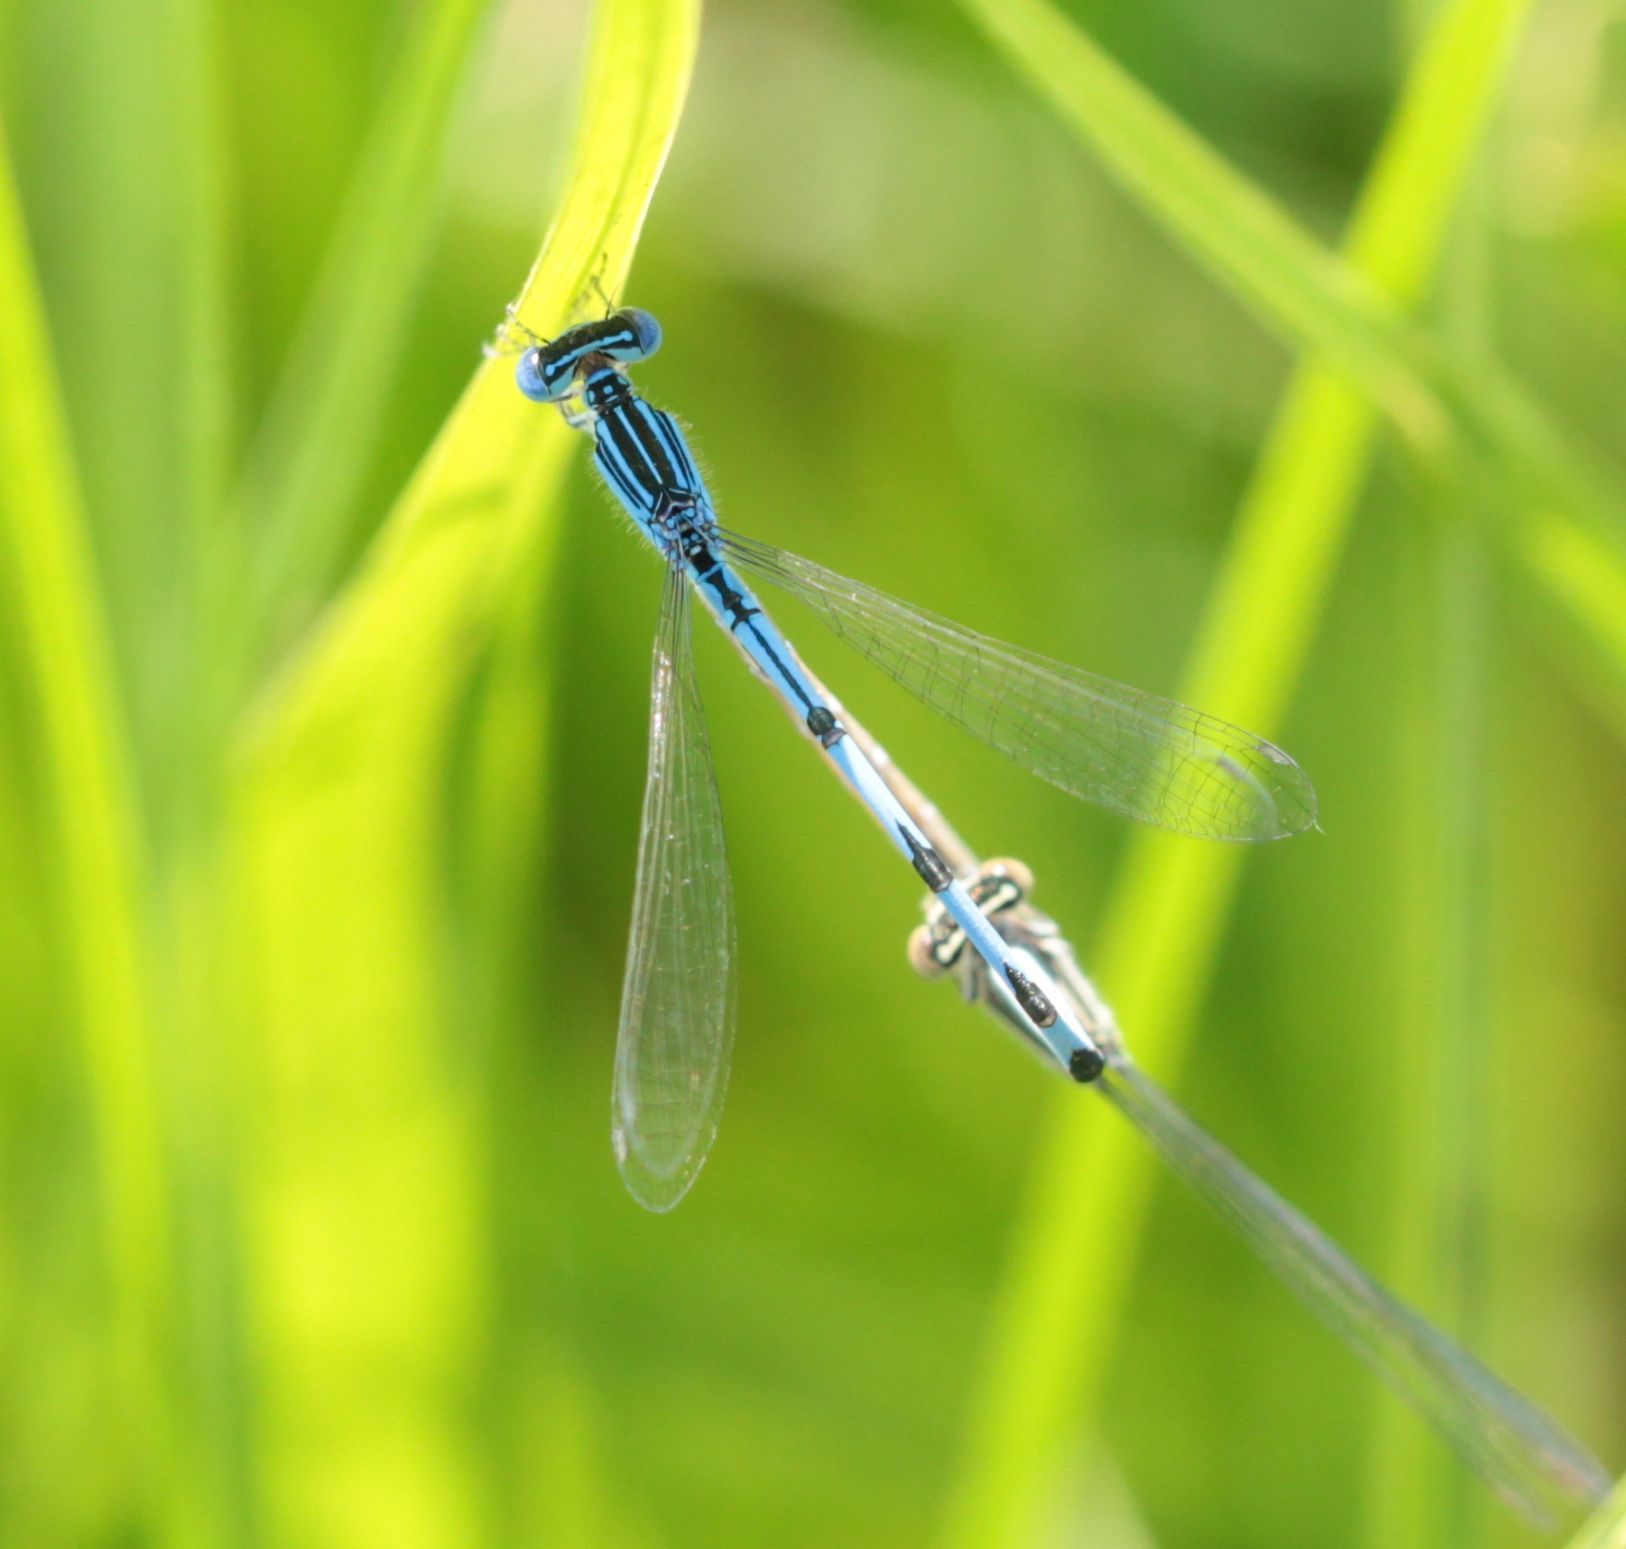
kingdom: Animalia
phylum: Arthropoda
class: Insecta
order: Odonata
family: Coenagrionidae
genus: Enallagma
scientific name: Enallagma basidens
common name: Double-striped bluet
